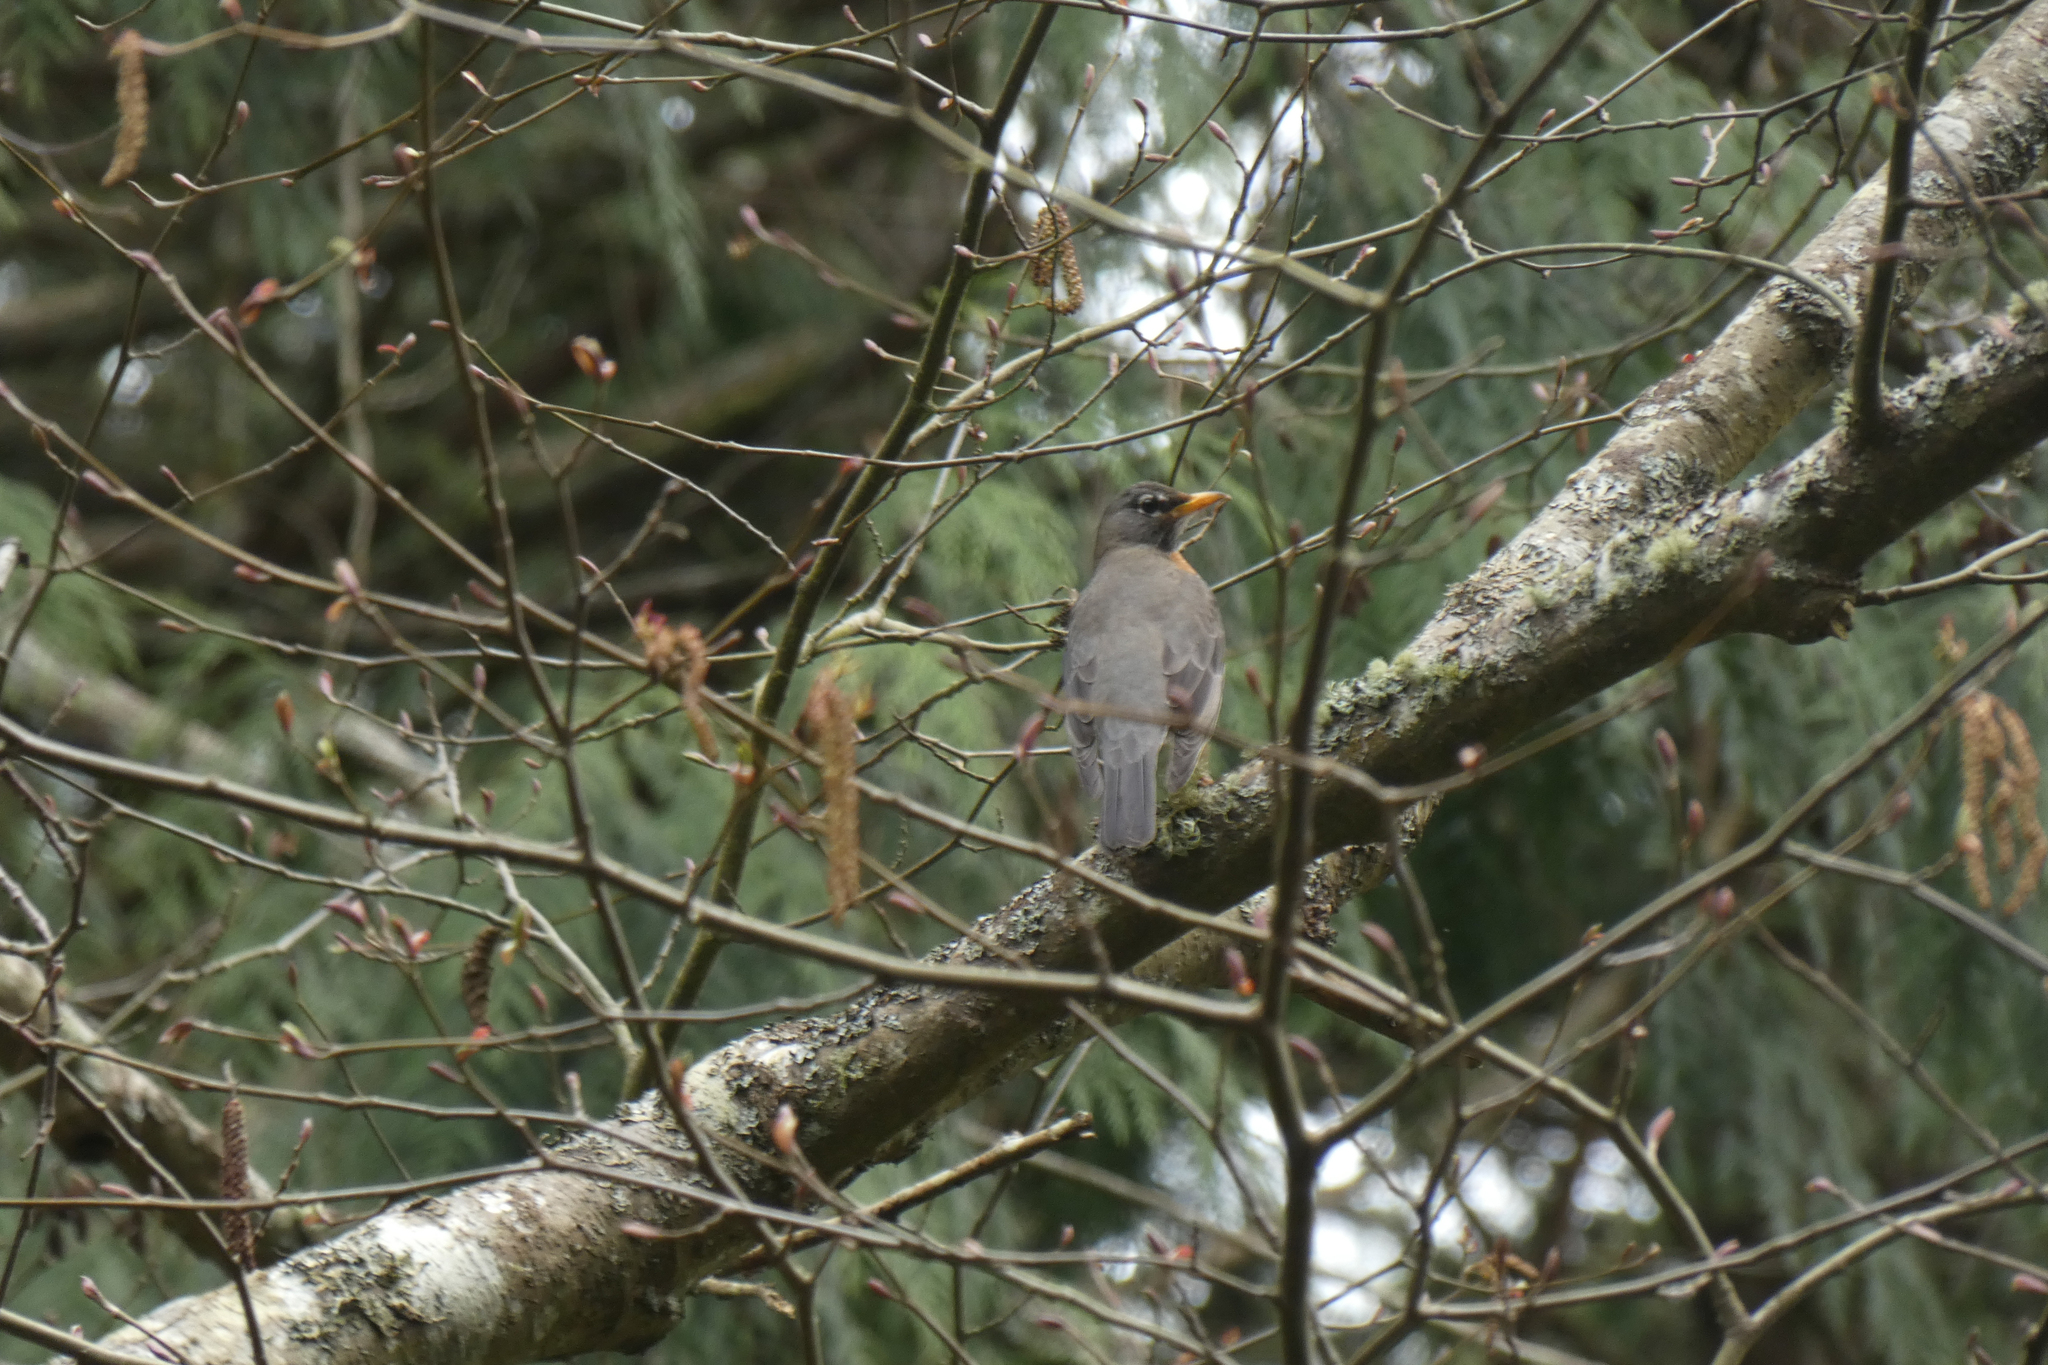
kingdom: Animalia
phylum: Chordata
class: Aves
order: Passeriformes
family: Turdidae
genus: Turdus
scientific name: Turdus migratorius
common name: American robin
